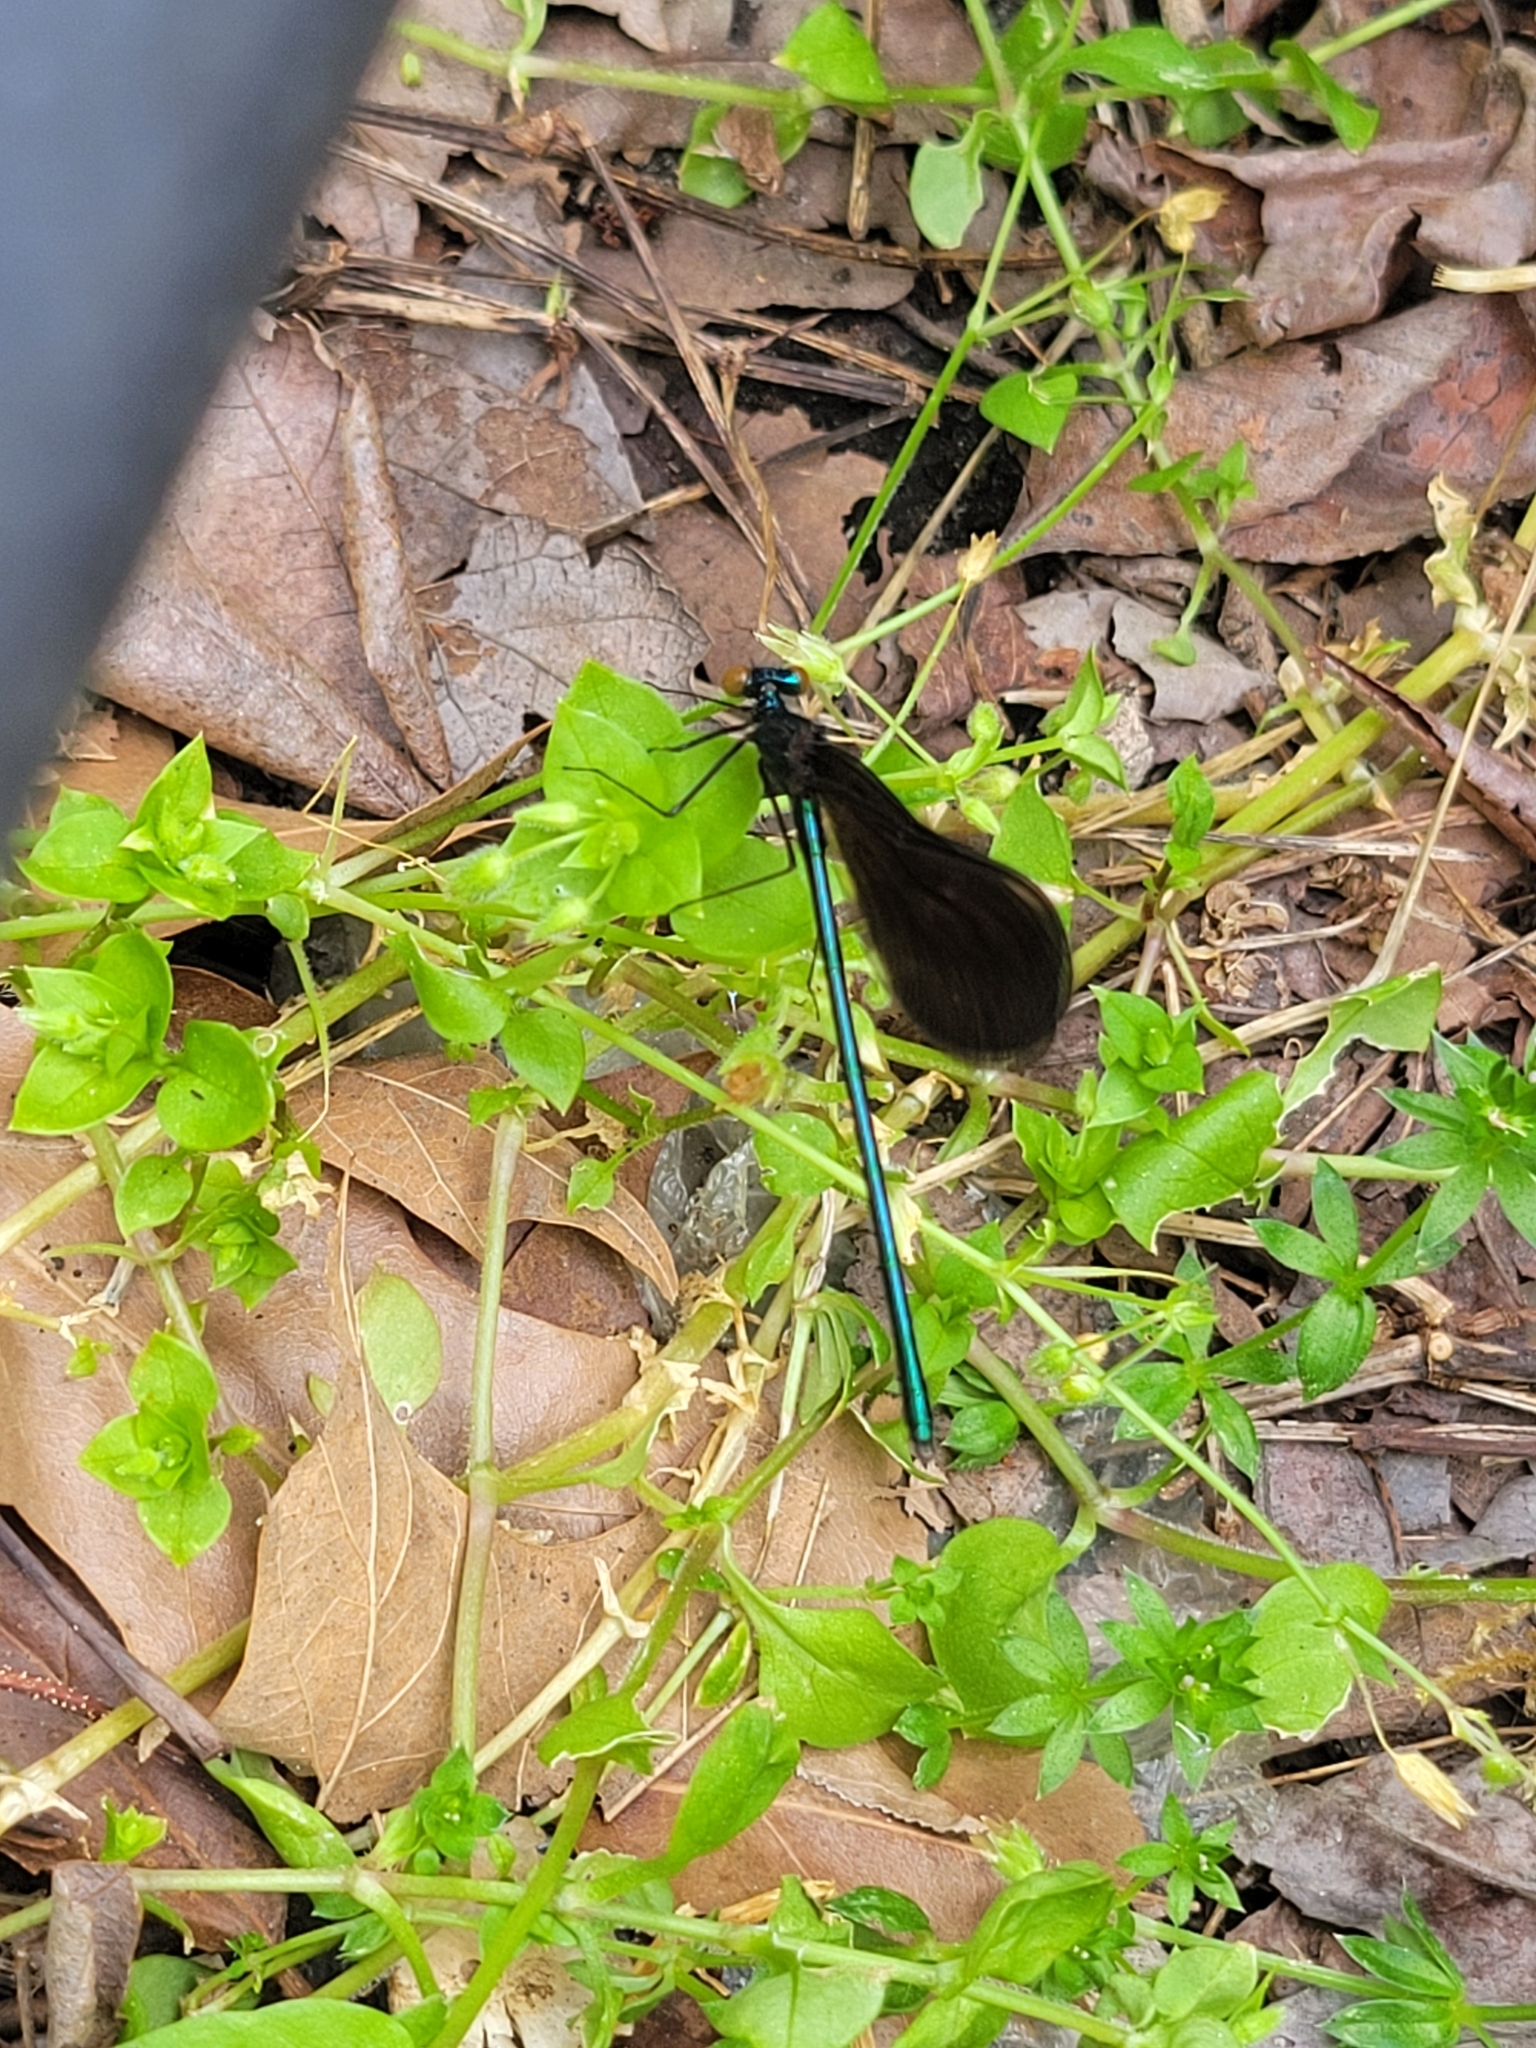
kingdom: Animalia
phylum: Arthropoda
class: Insecta
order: Odonata
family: Calopterygidae
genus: Calopteryx
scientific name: Calopteryx maculata
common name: Ebony jewelwing
